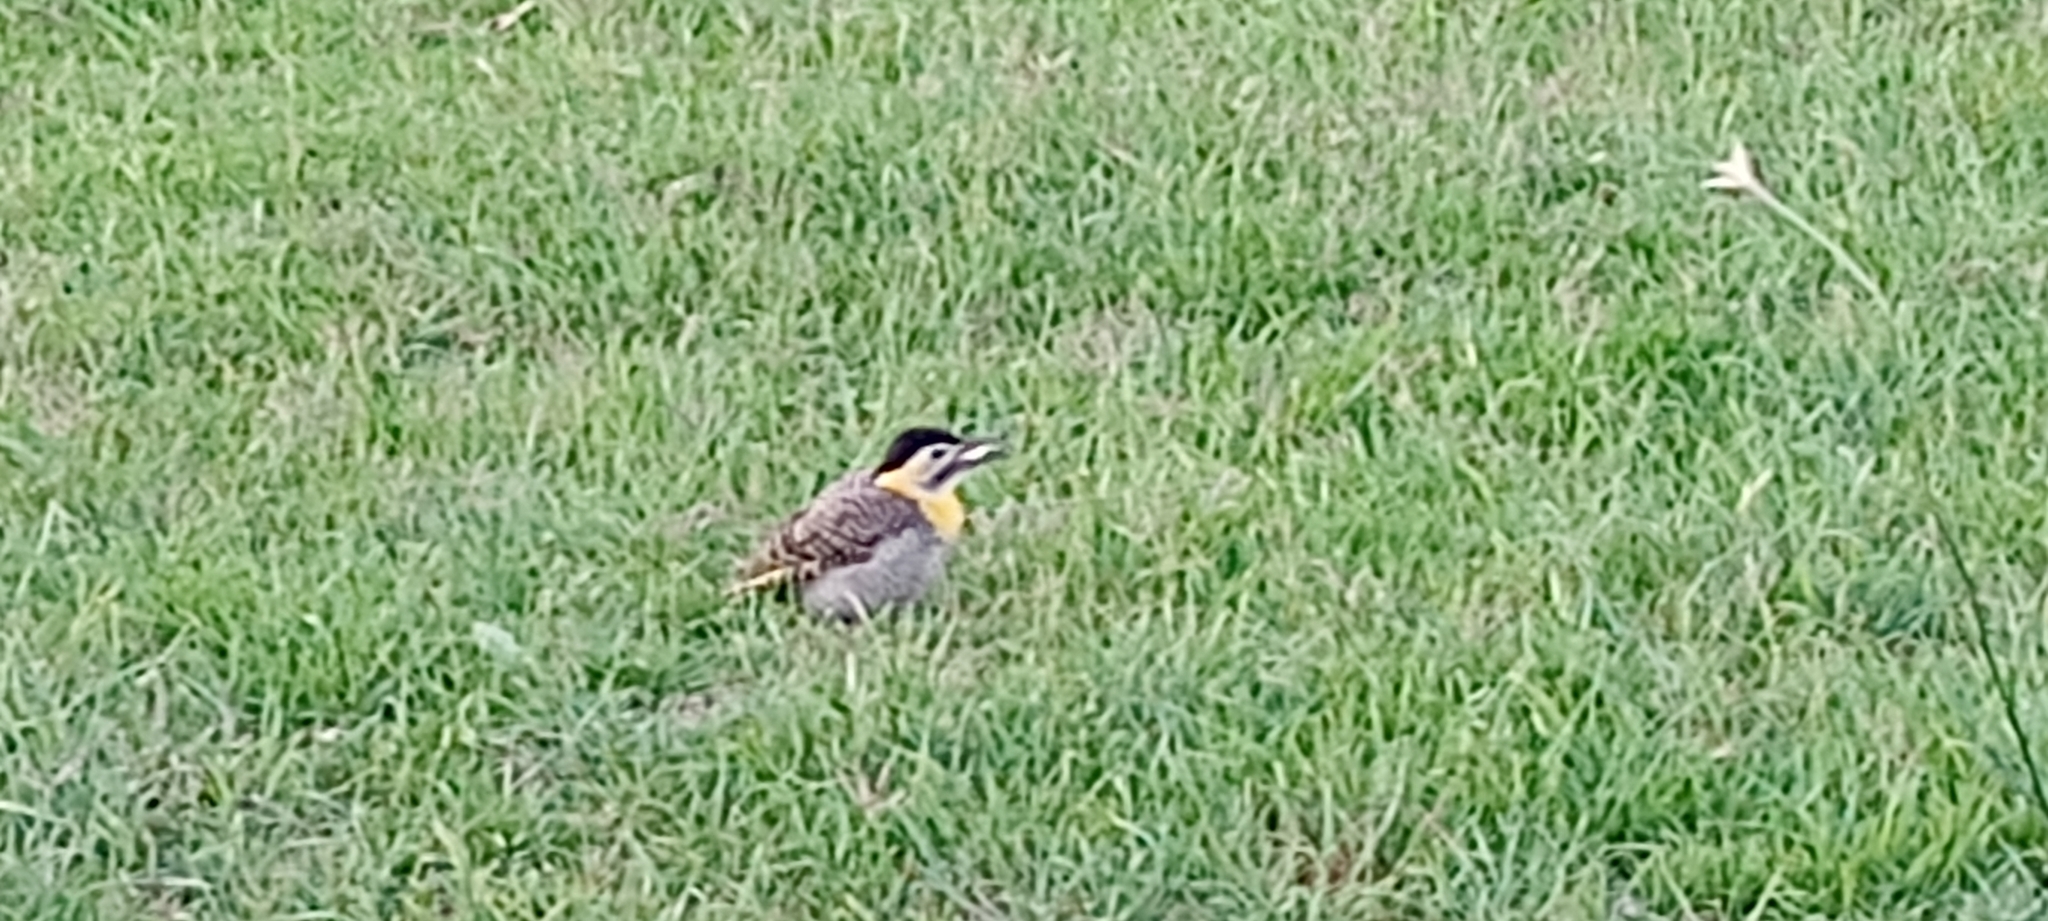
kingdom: Animalia
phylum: Chordata
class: Aves
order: Piciformes
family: Picidae
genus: Colaptes
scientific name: Colaptes campestris
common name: Campo flicker
